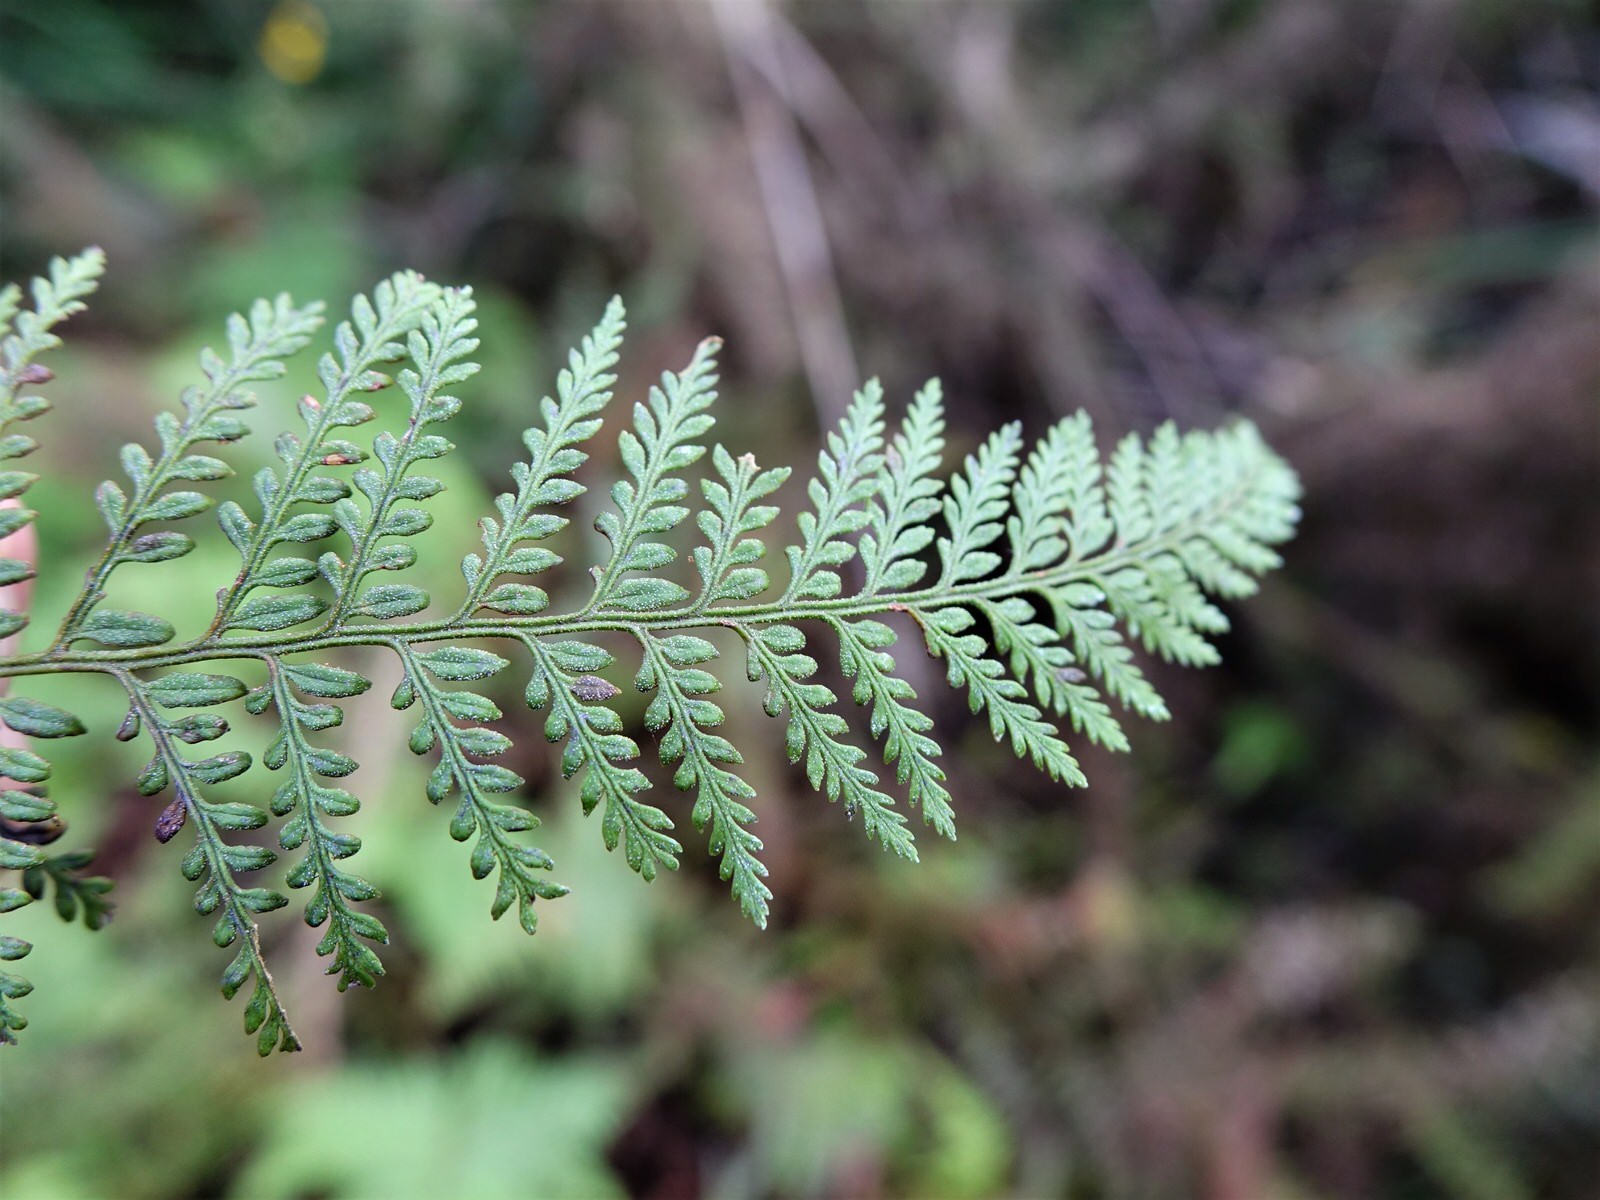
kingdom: Plantae
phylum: Tracheophyta
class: Polypodiopsida
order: Polypodiales
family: Dennstaedtiaceae
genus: Paesia
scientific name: Paesia scaberula
